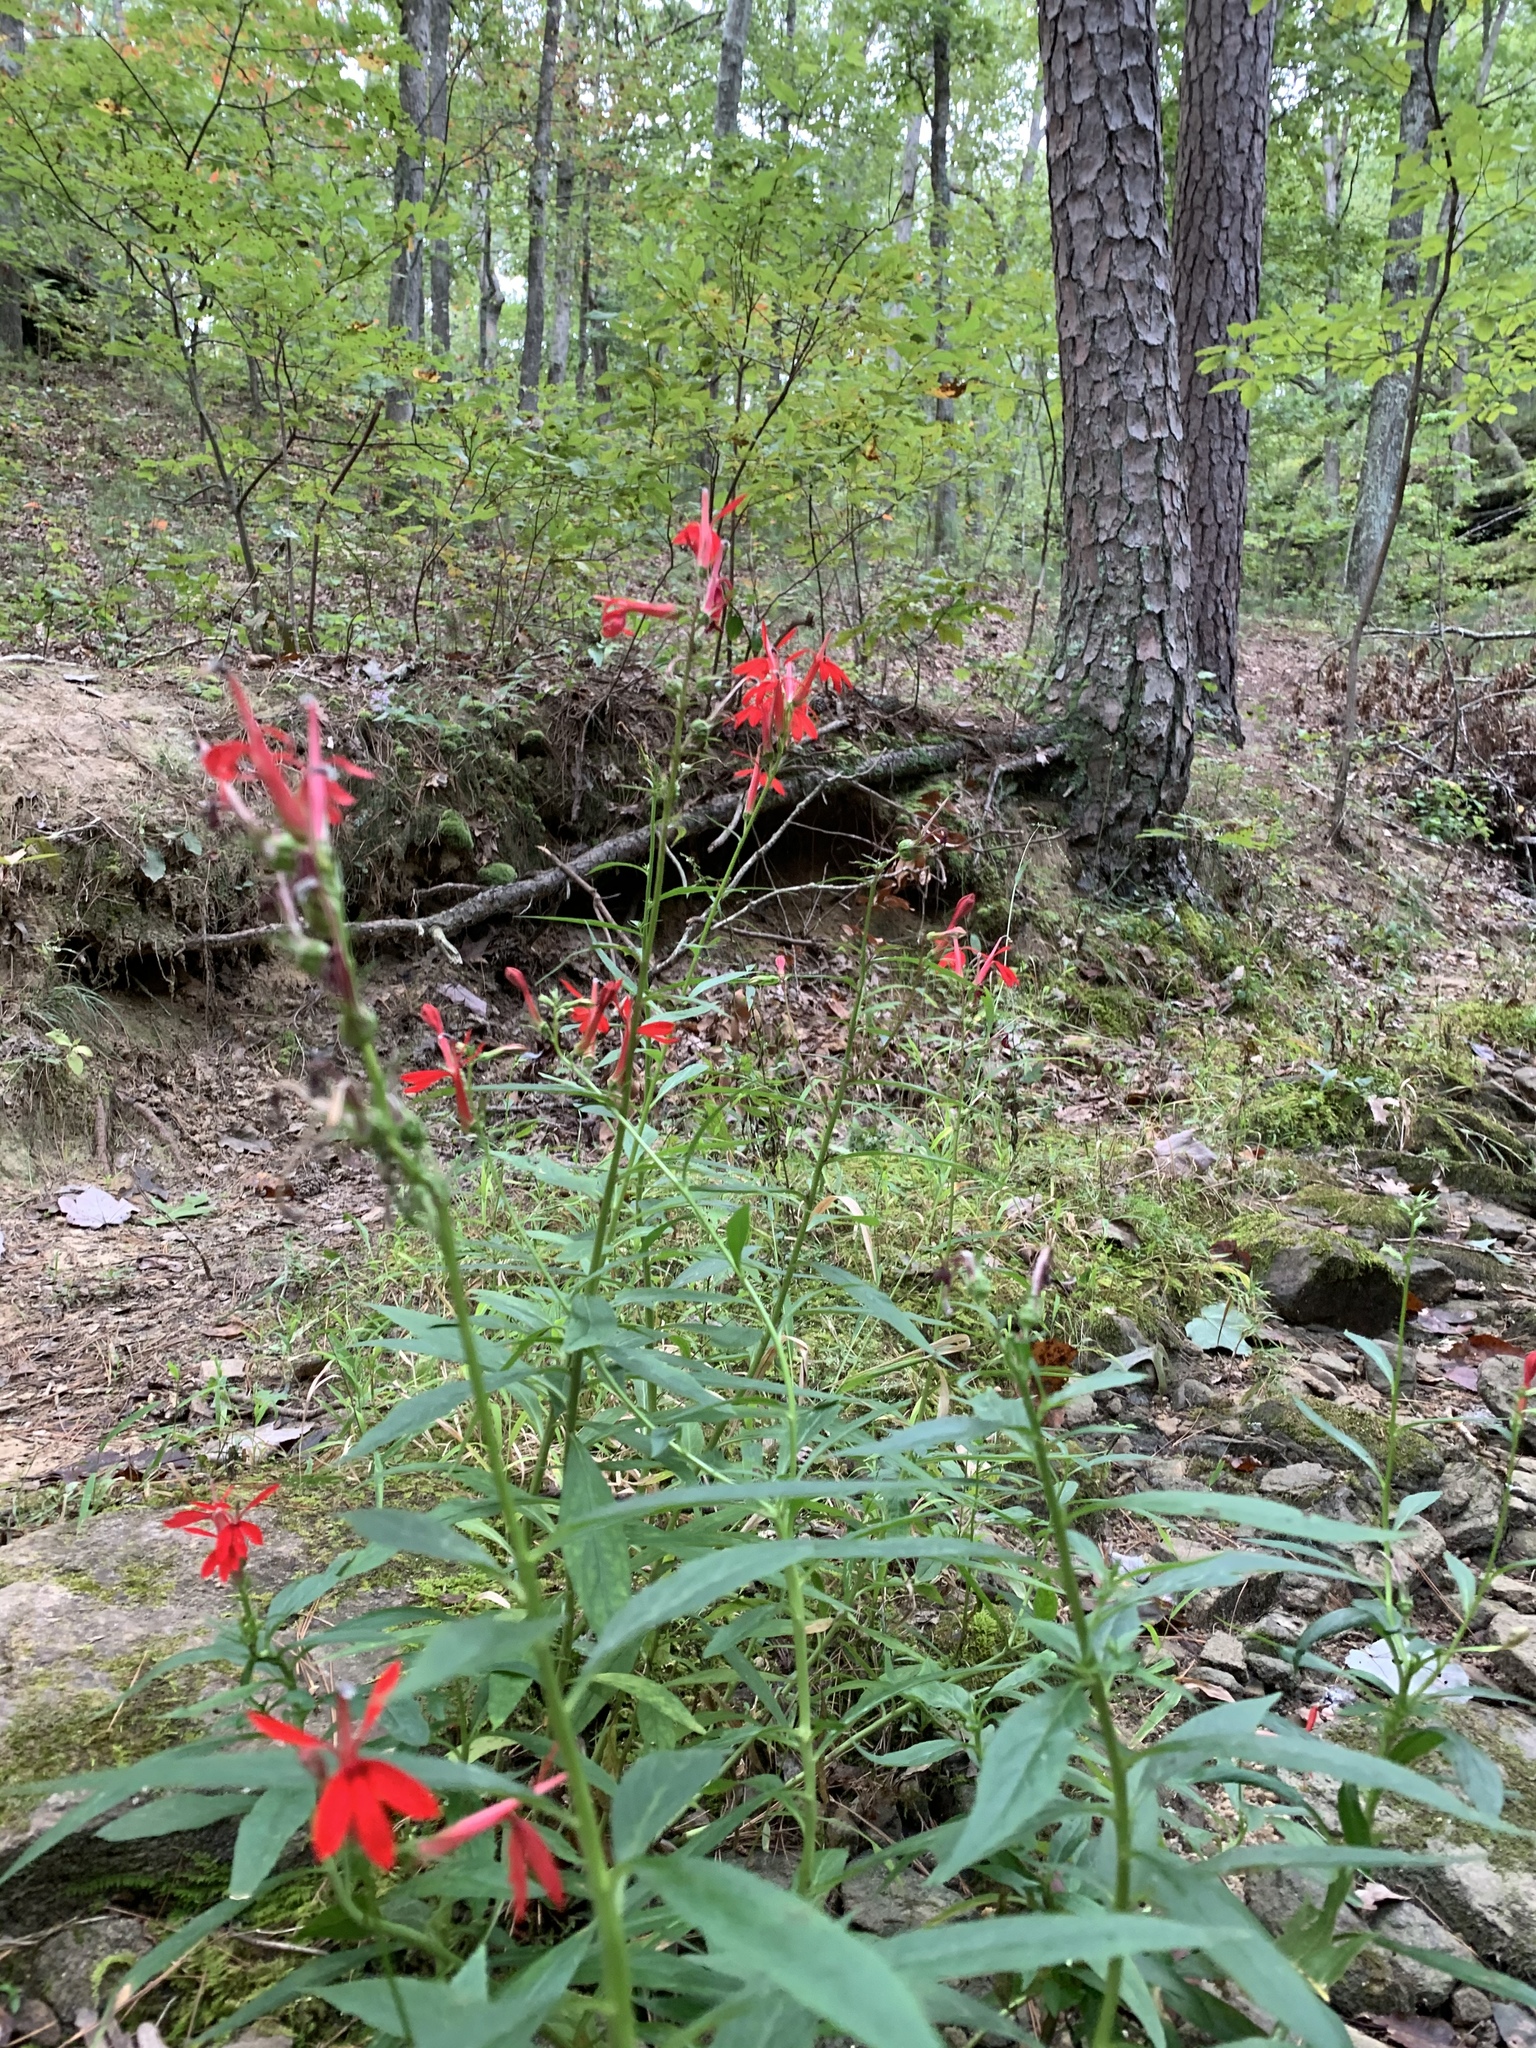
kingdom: Plantae
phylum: Tracheophyta
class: Magnoliopsida
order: Asterales
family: Campanulaceae
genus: Lobelia
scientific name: Lobelia cardinalis
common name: Cardinal flower
